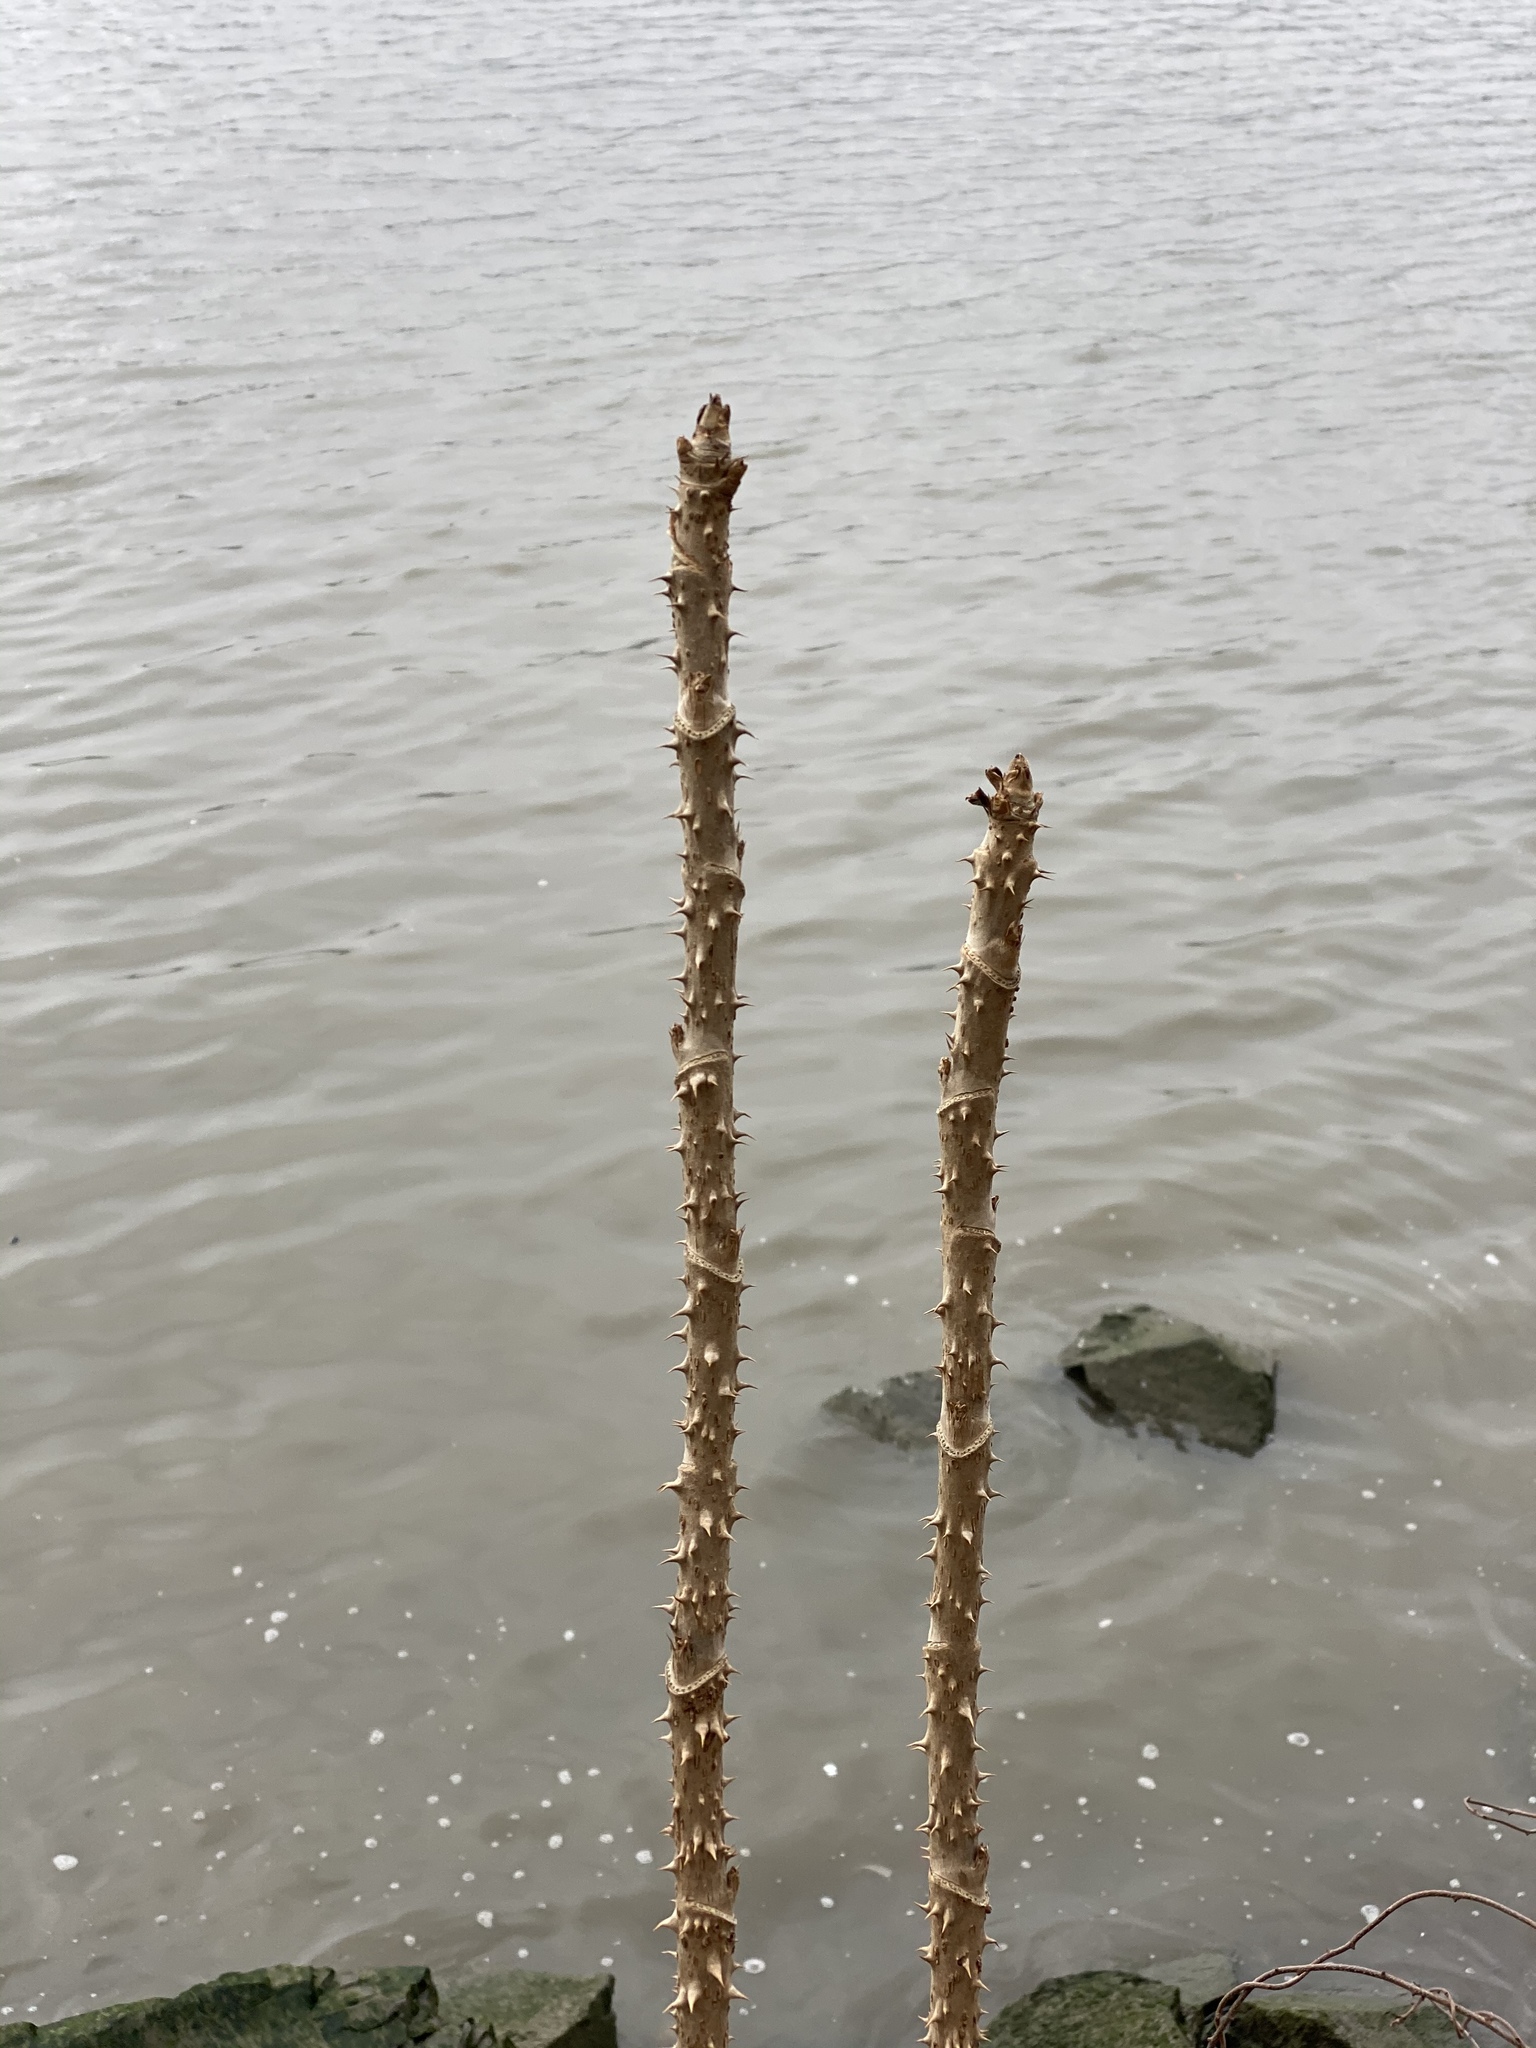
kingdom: Plantae
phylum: Tracheophyta
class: Magnoliopsida
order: Apiales
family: Araliaceae
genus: Aralia
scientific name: Aralia elata
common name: Japanese angelica-tree
